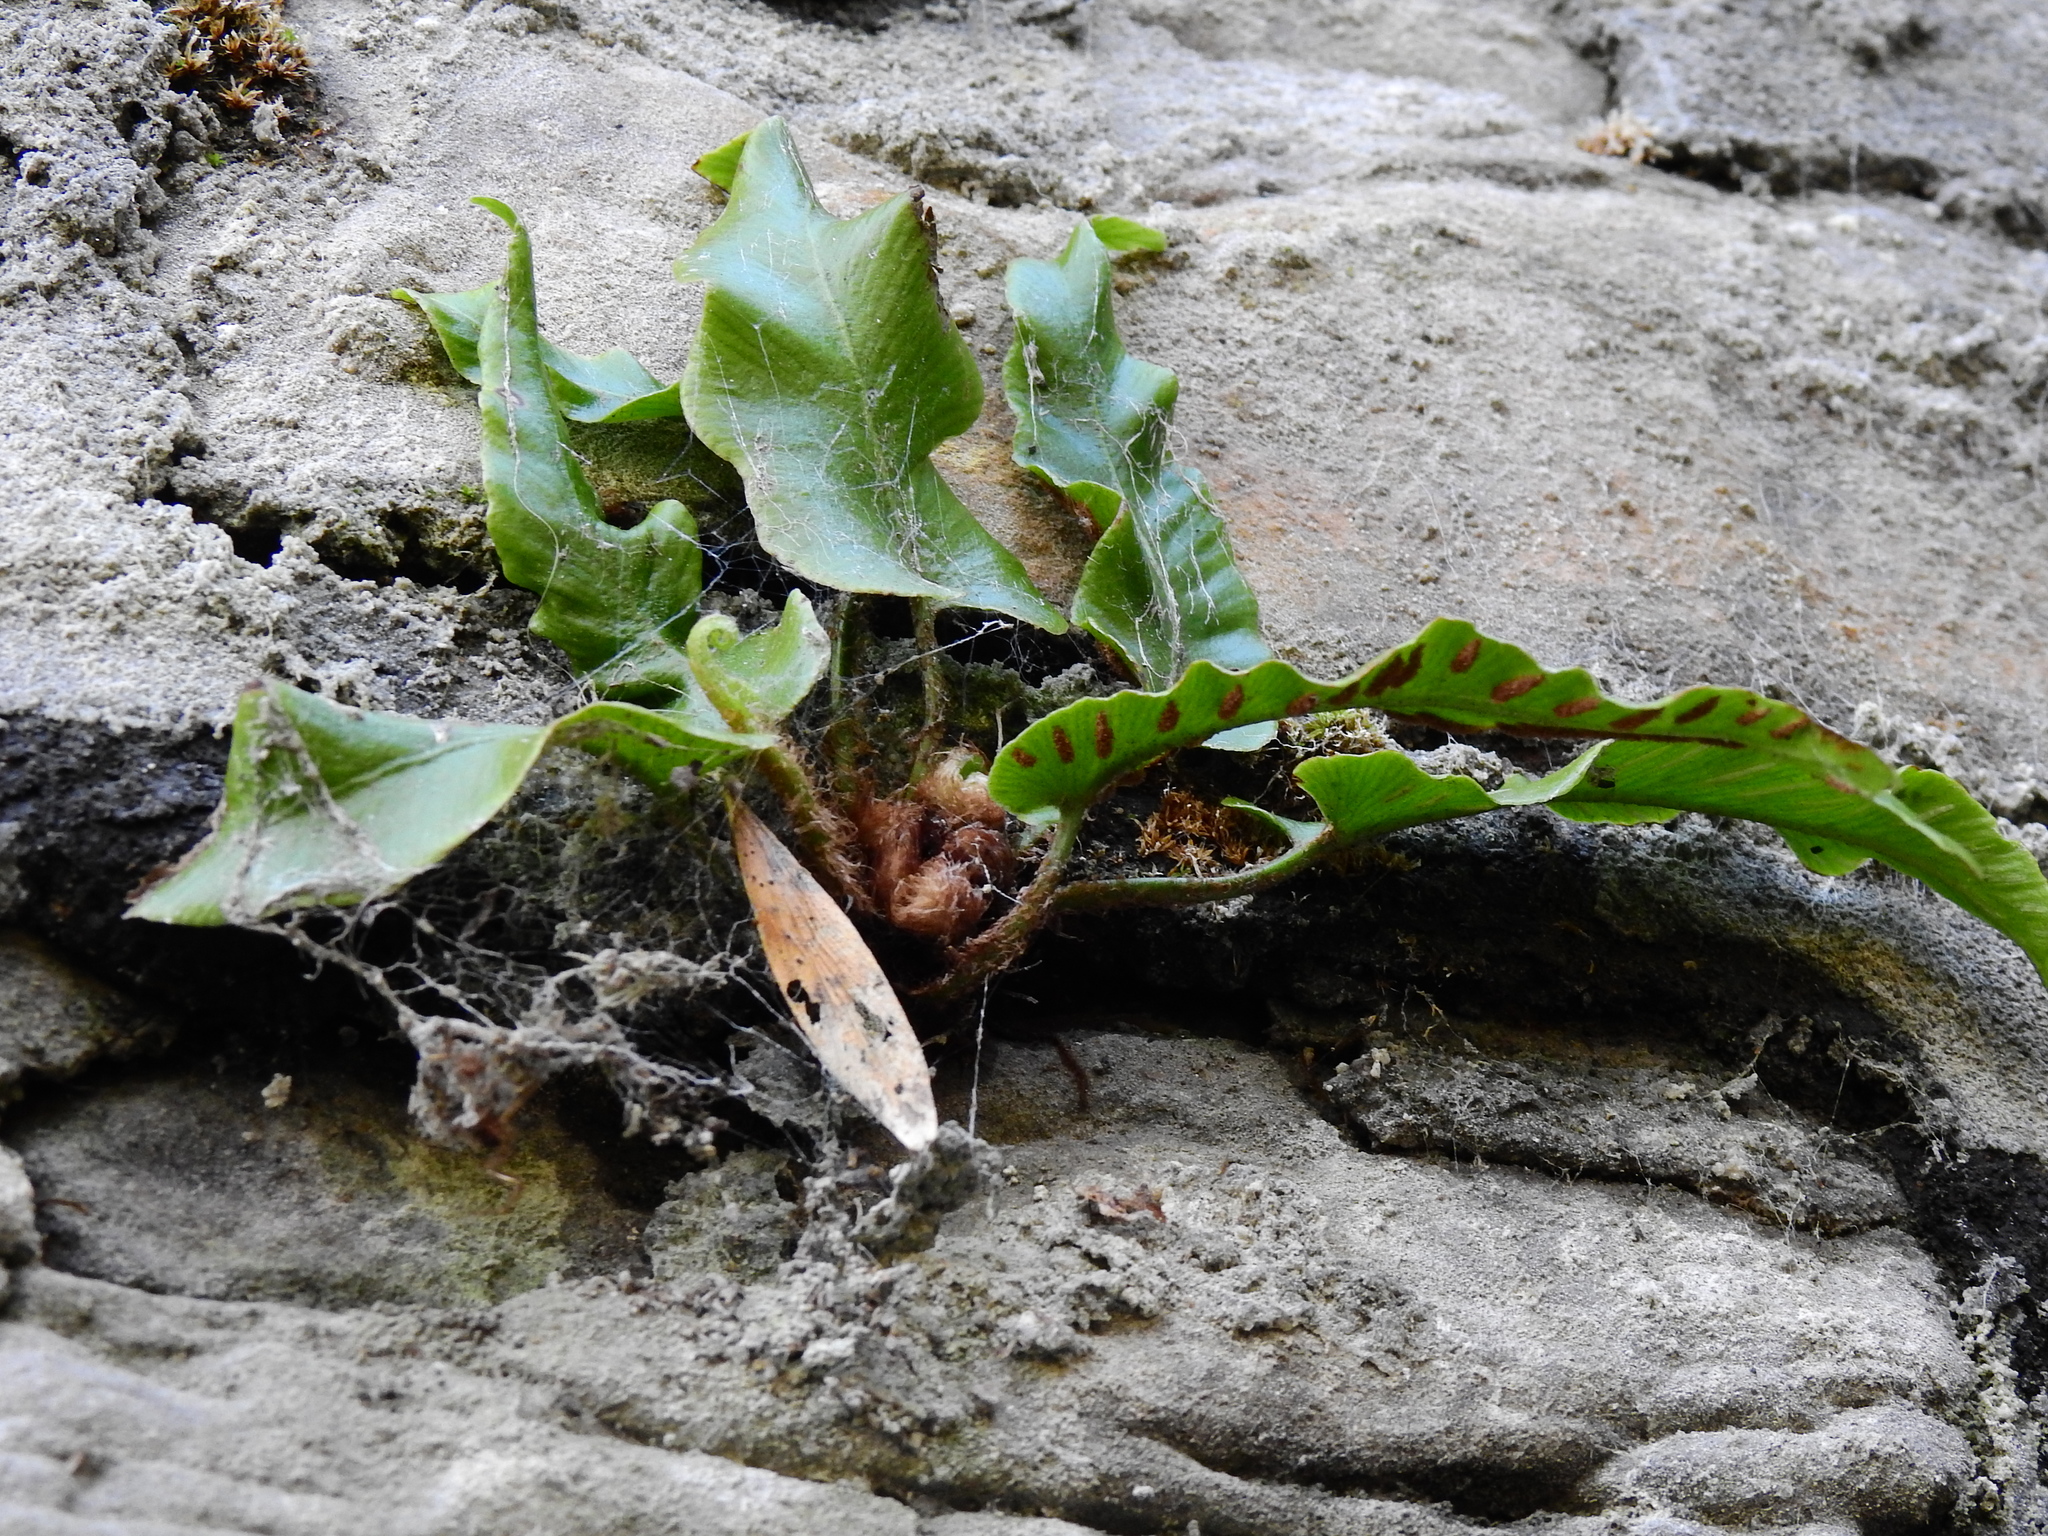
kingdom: Plantae
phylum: Tracheophyta
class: Polypodiopsida
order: Polypodiales
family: Aspleniaceae
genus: Asplenium
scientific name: Asplenium scolopendrium
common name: Hart's-tongue fern
